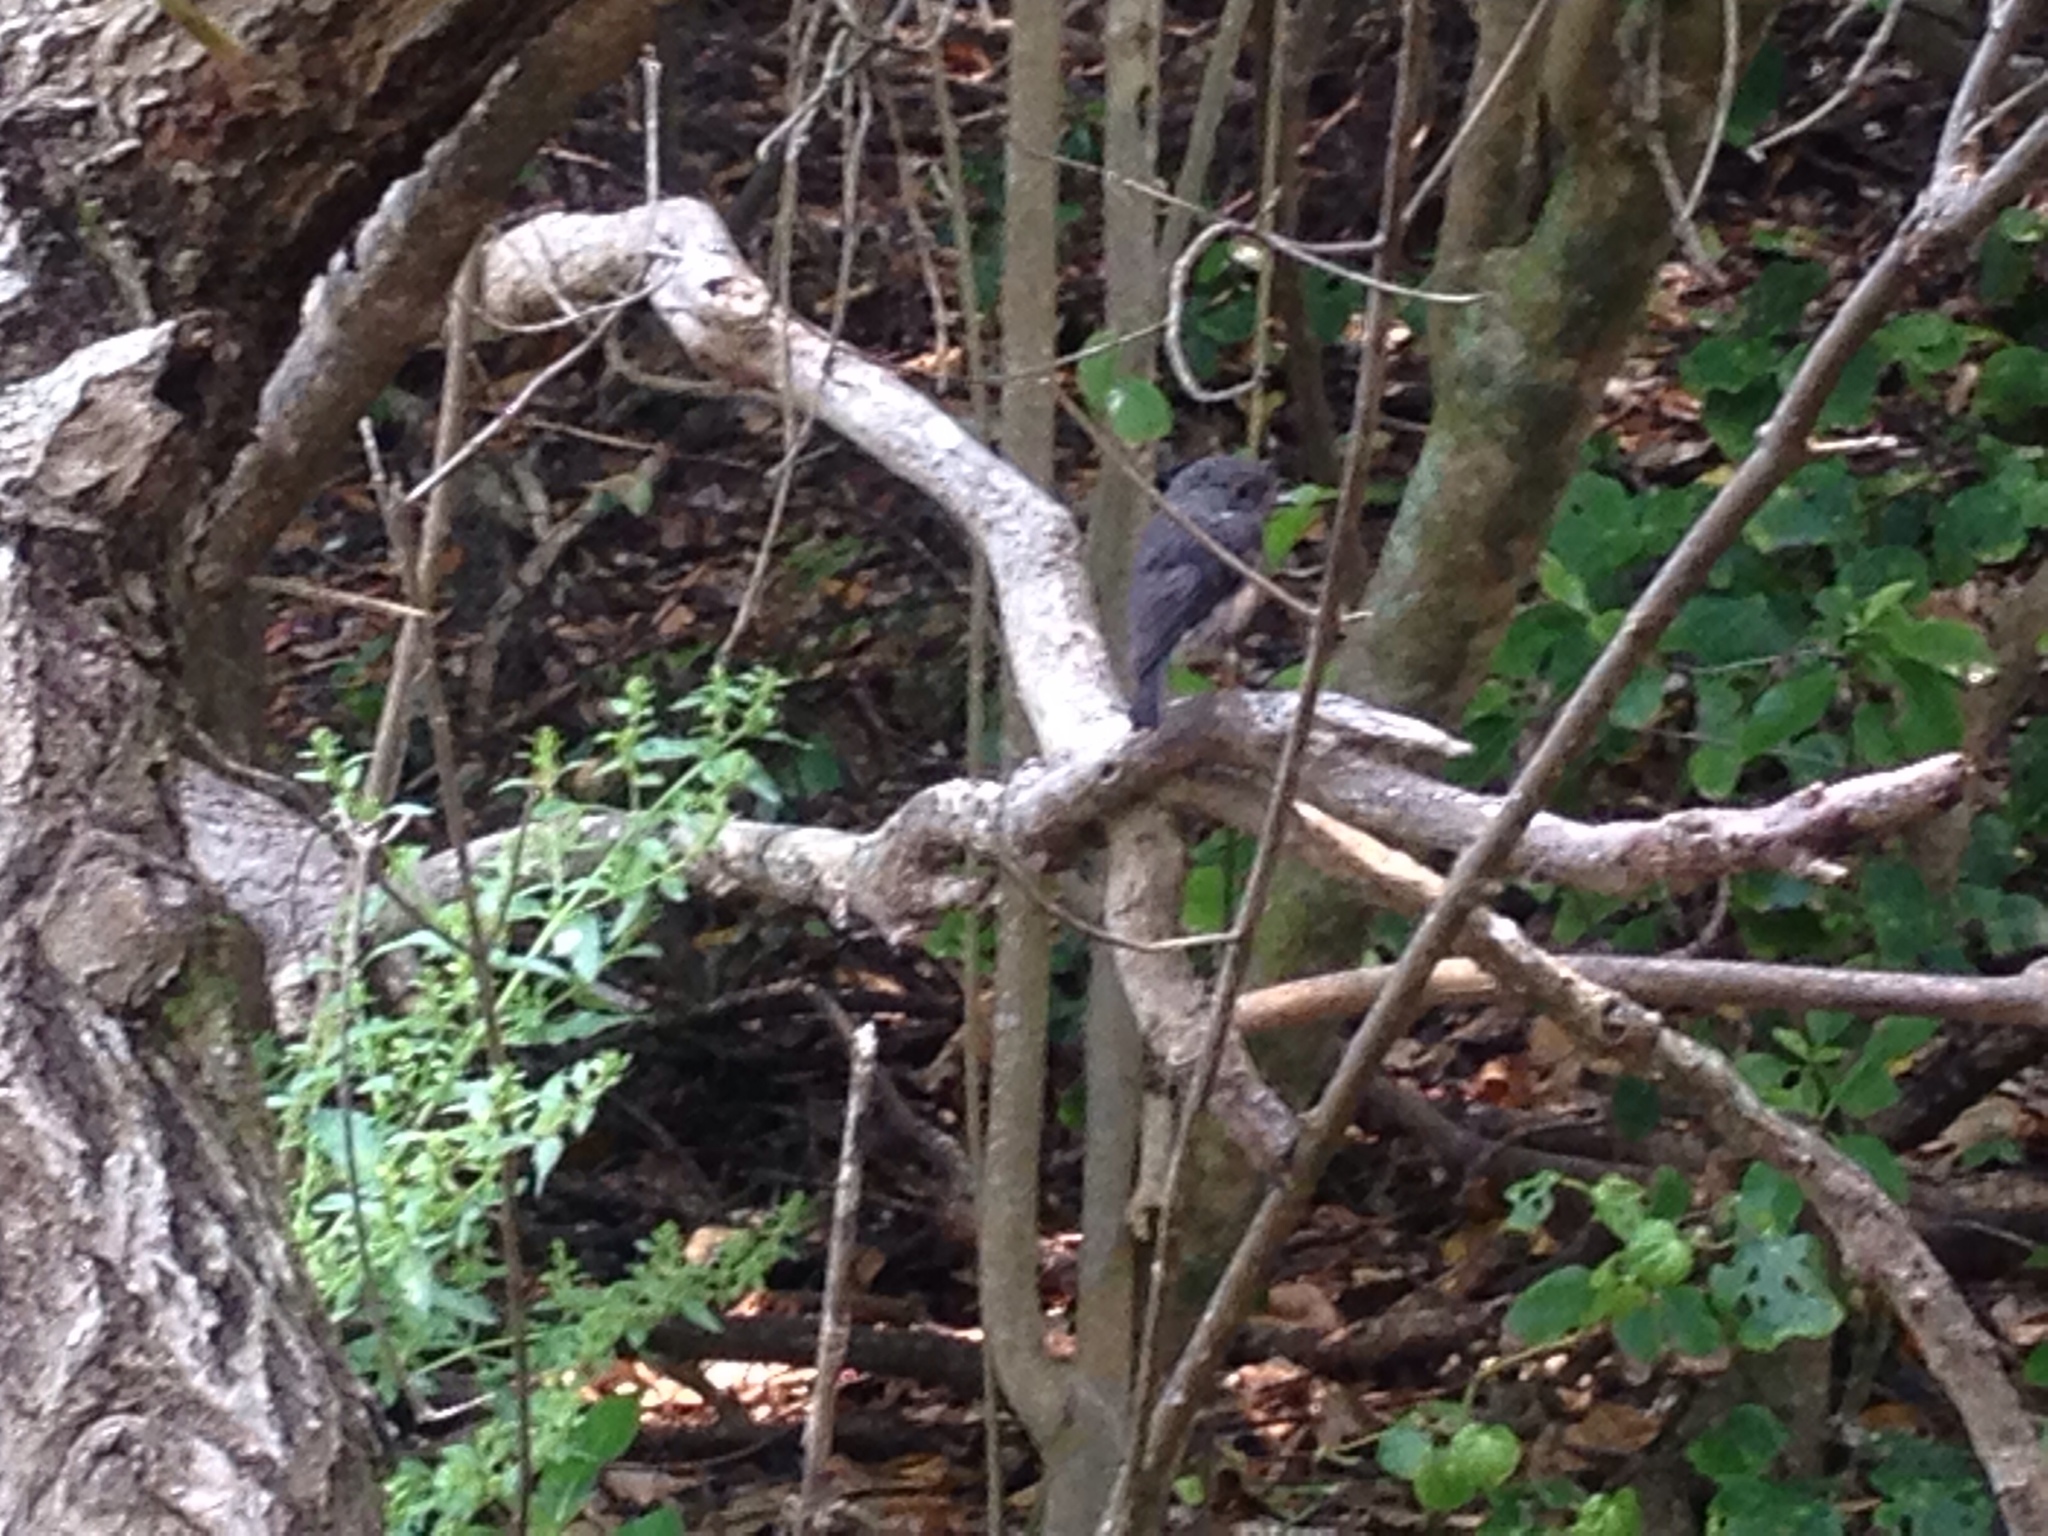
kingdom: Animalia
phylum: Chordata
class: Aves
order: Passeriformes
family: Petroicidae
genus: Petroica
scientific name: Petroica australis
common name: New zealand robin
